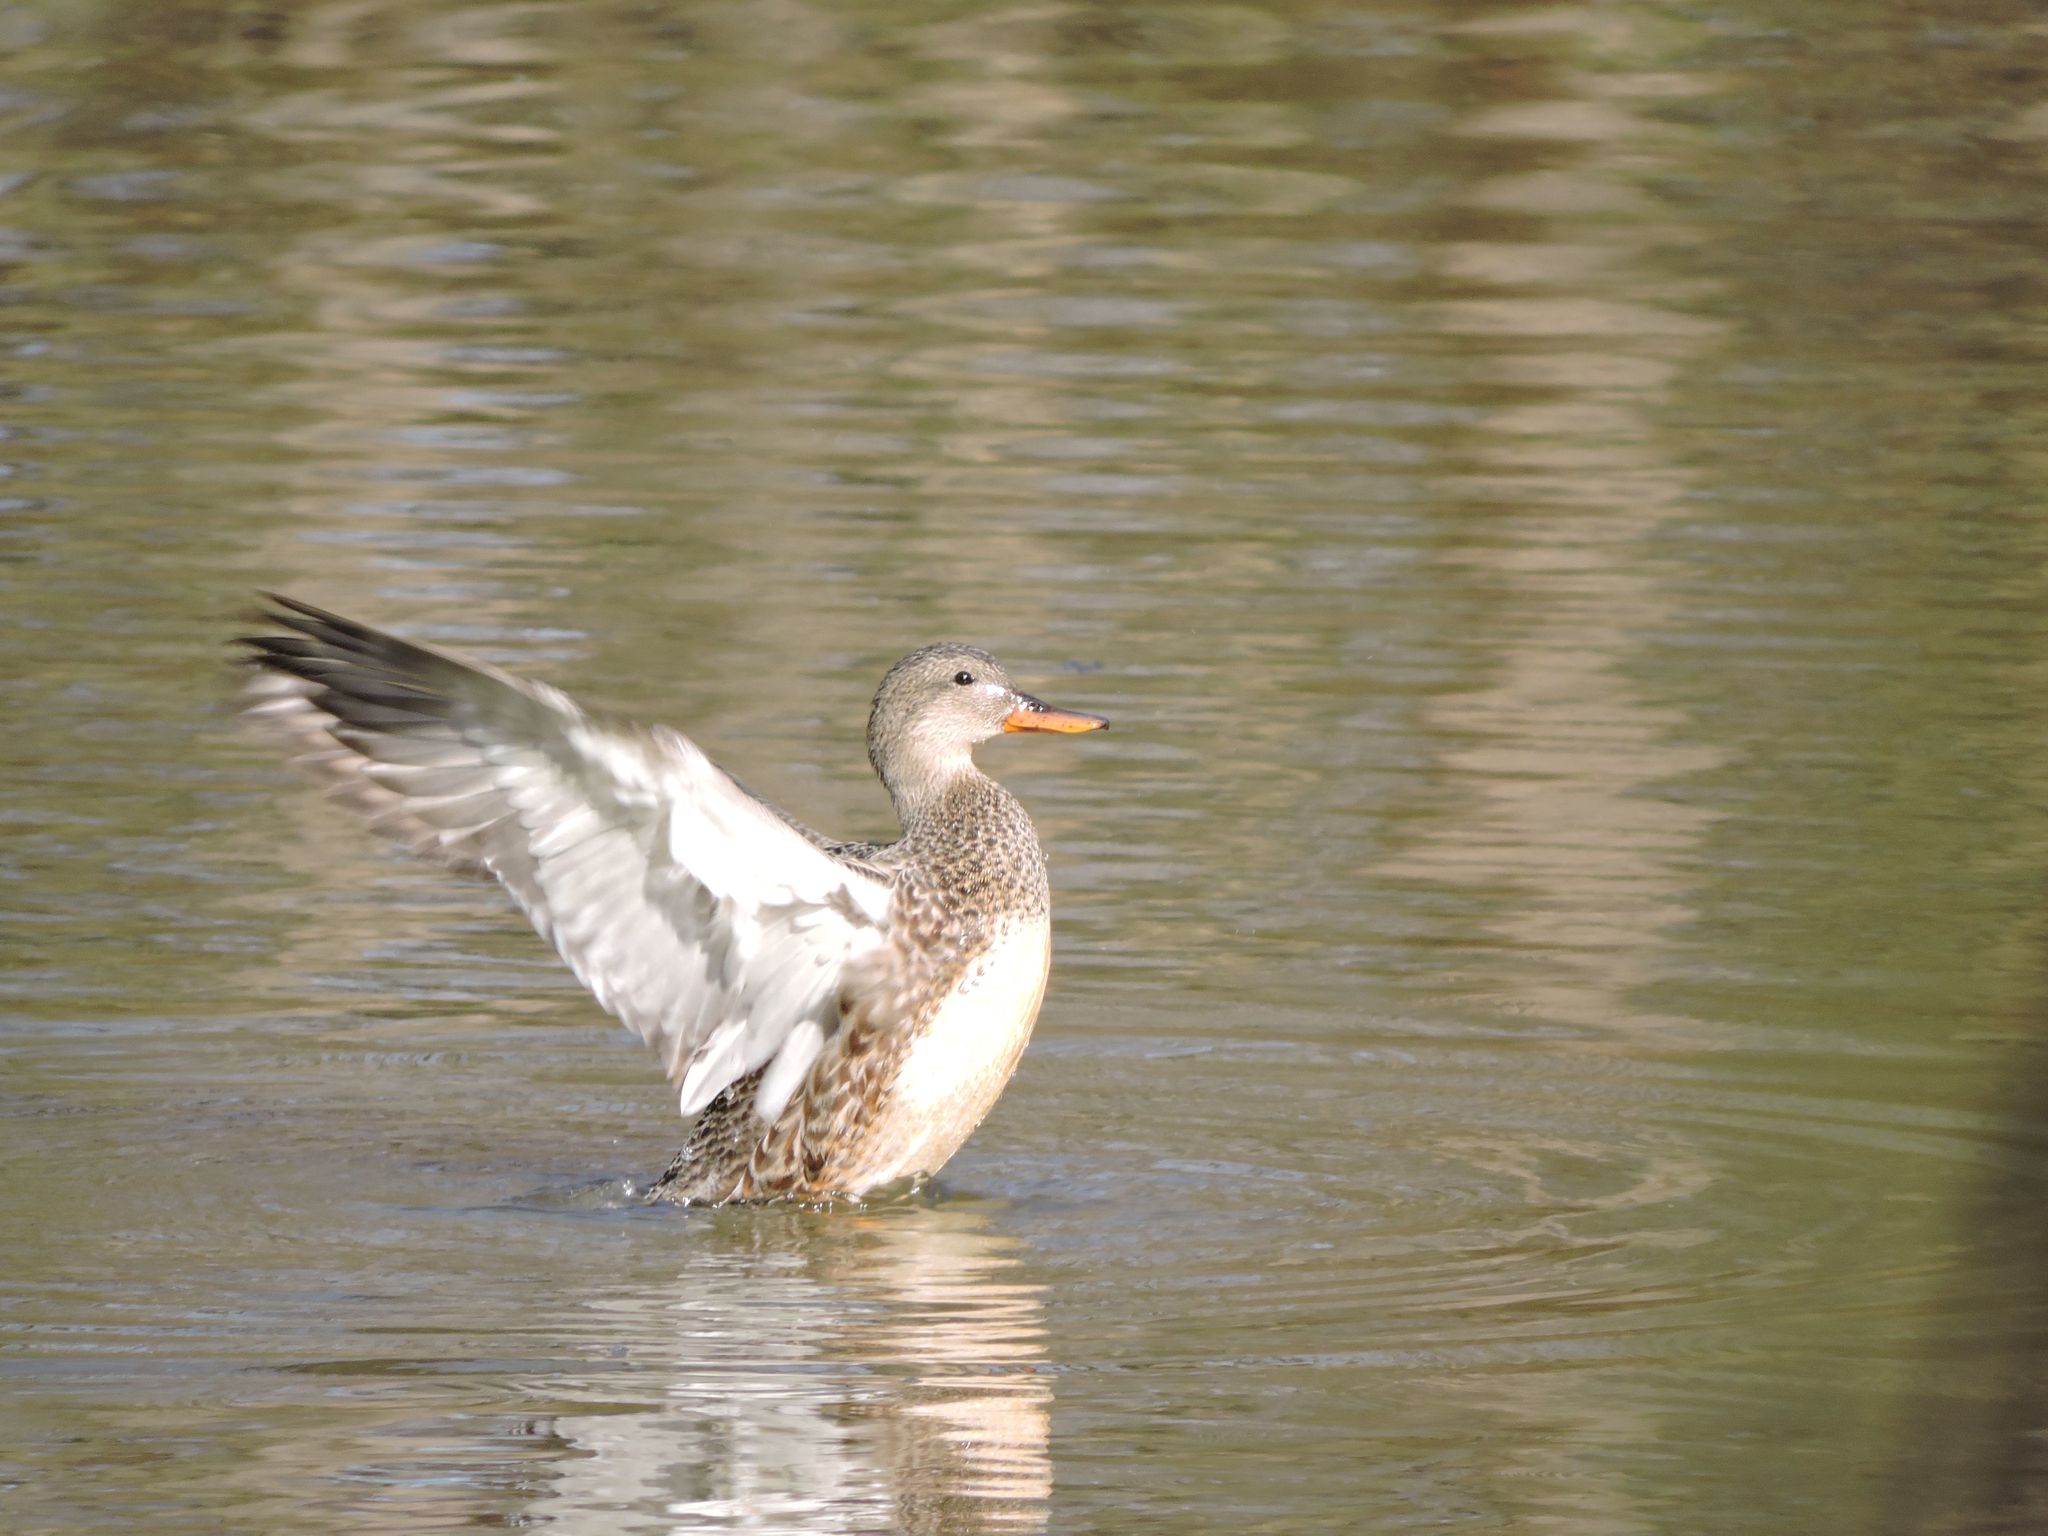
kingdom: Animalia
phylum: Chordata
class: Aves
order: Anseriformes
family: Anatidae
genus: Mareca
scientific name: Mareca strepera
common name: Gadwall
